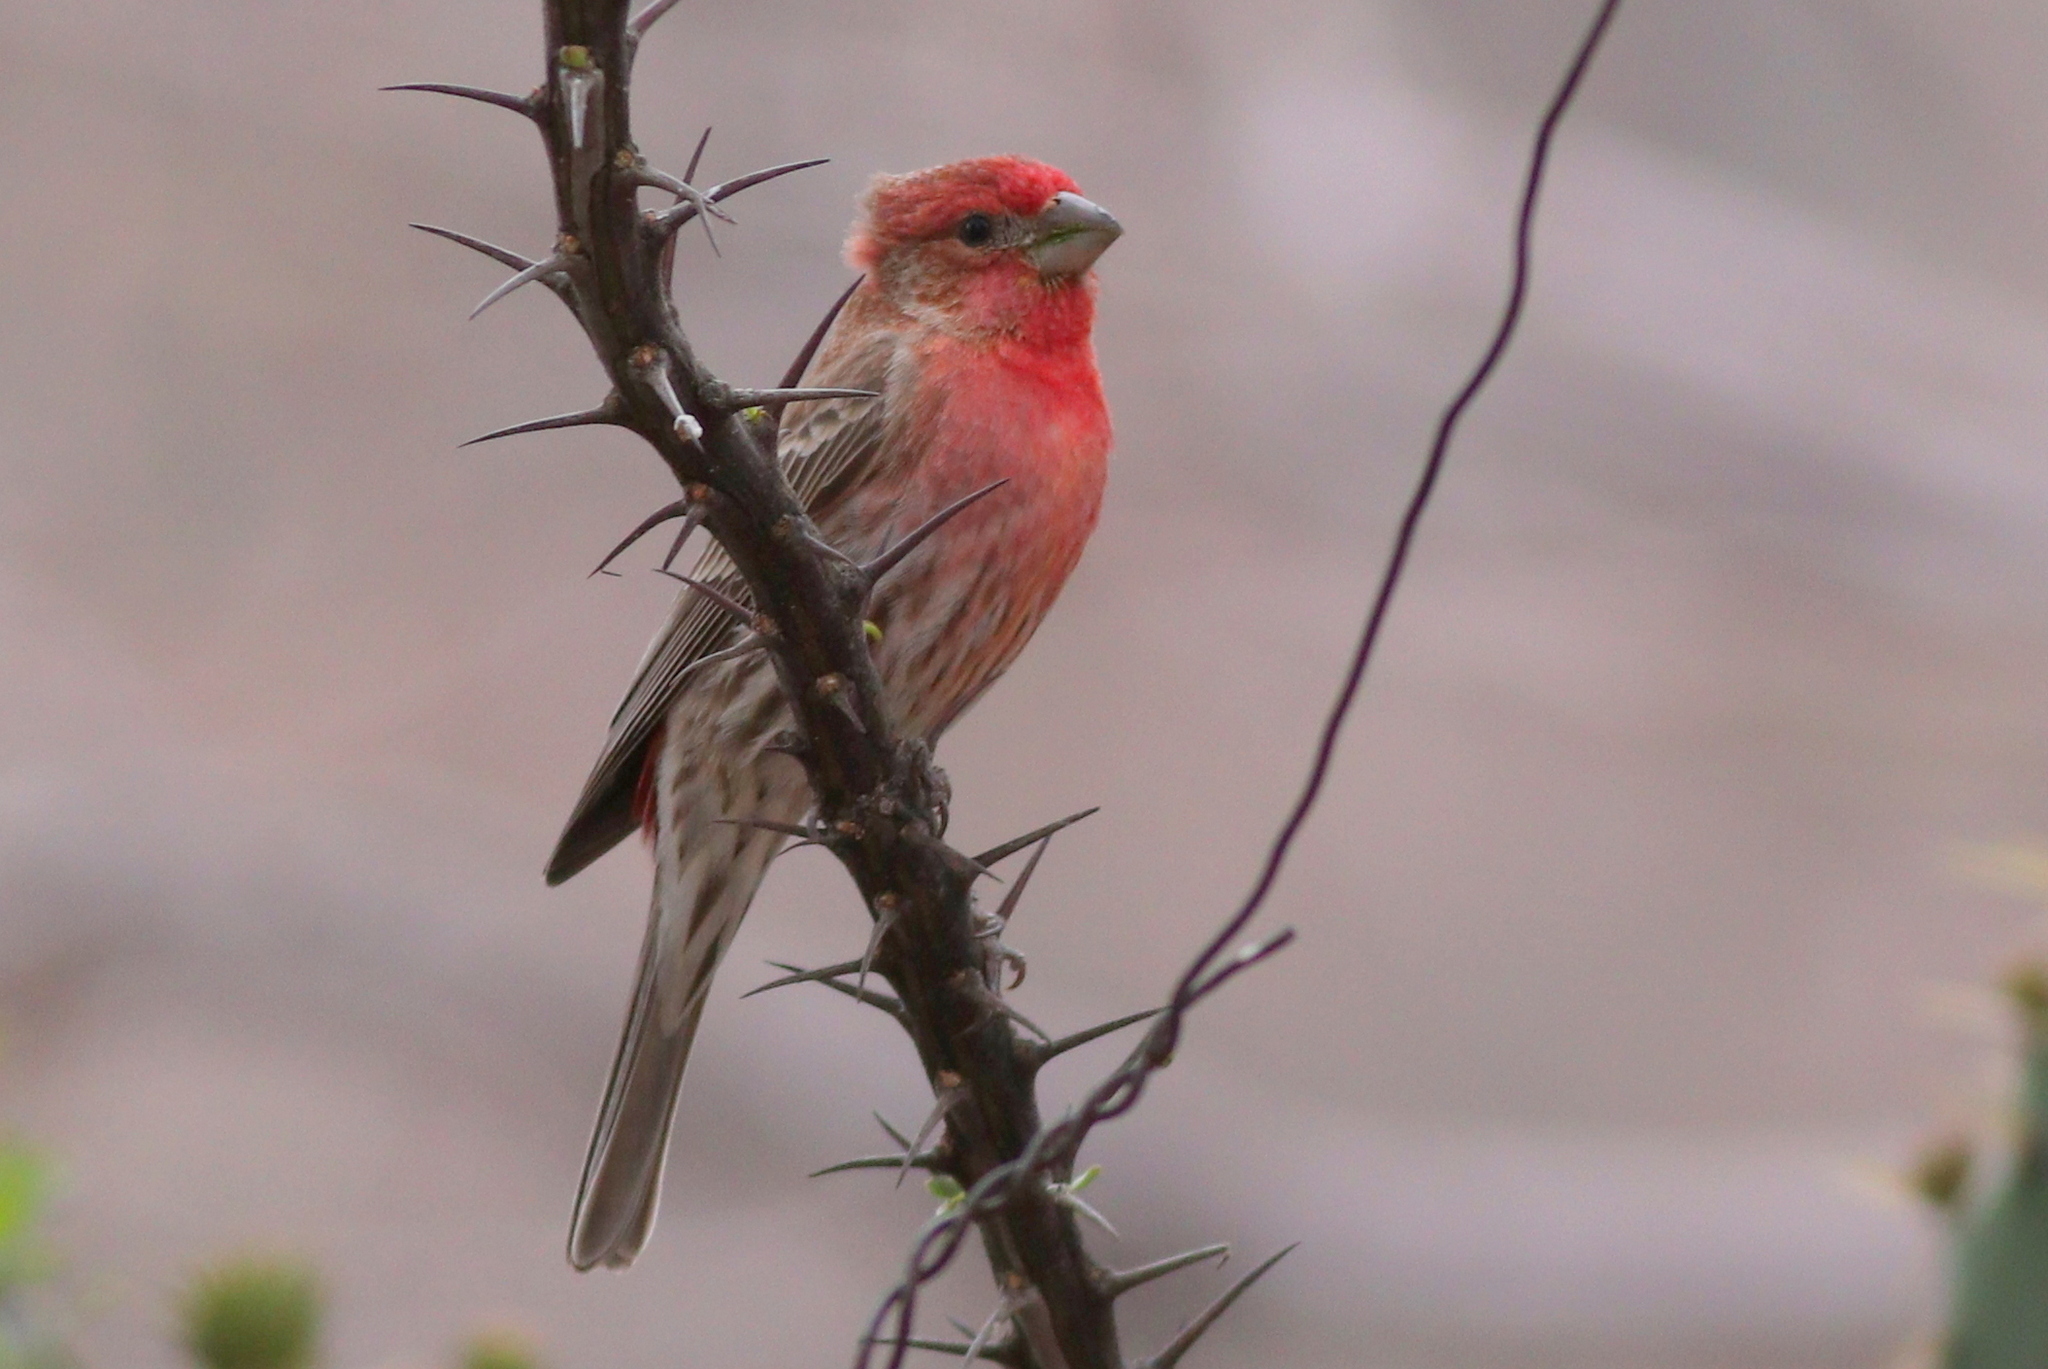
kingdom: Animalia
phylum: Chordata
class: Aves
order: Passeriformes
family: Fringillidae
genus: Haemorhous
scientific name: Haemorhous mexicanus
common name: House finch
